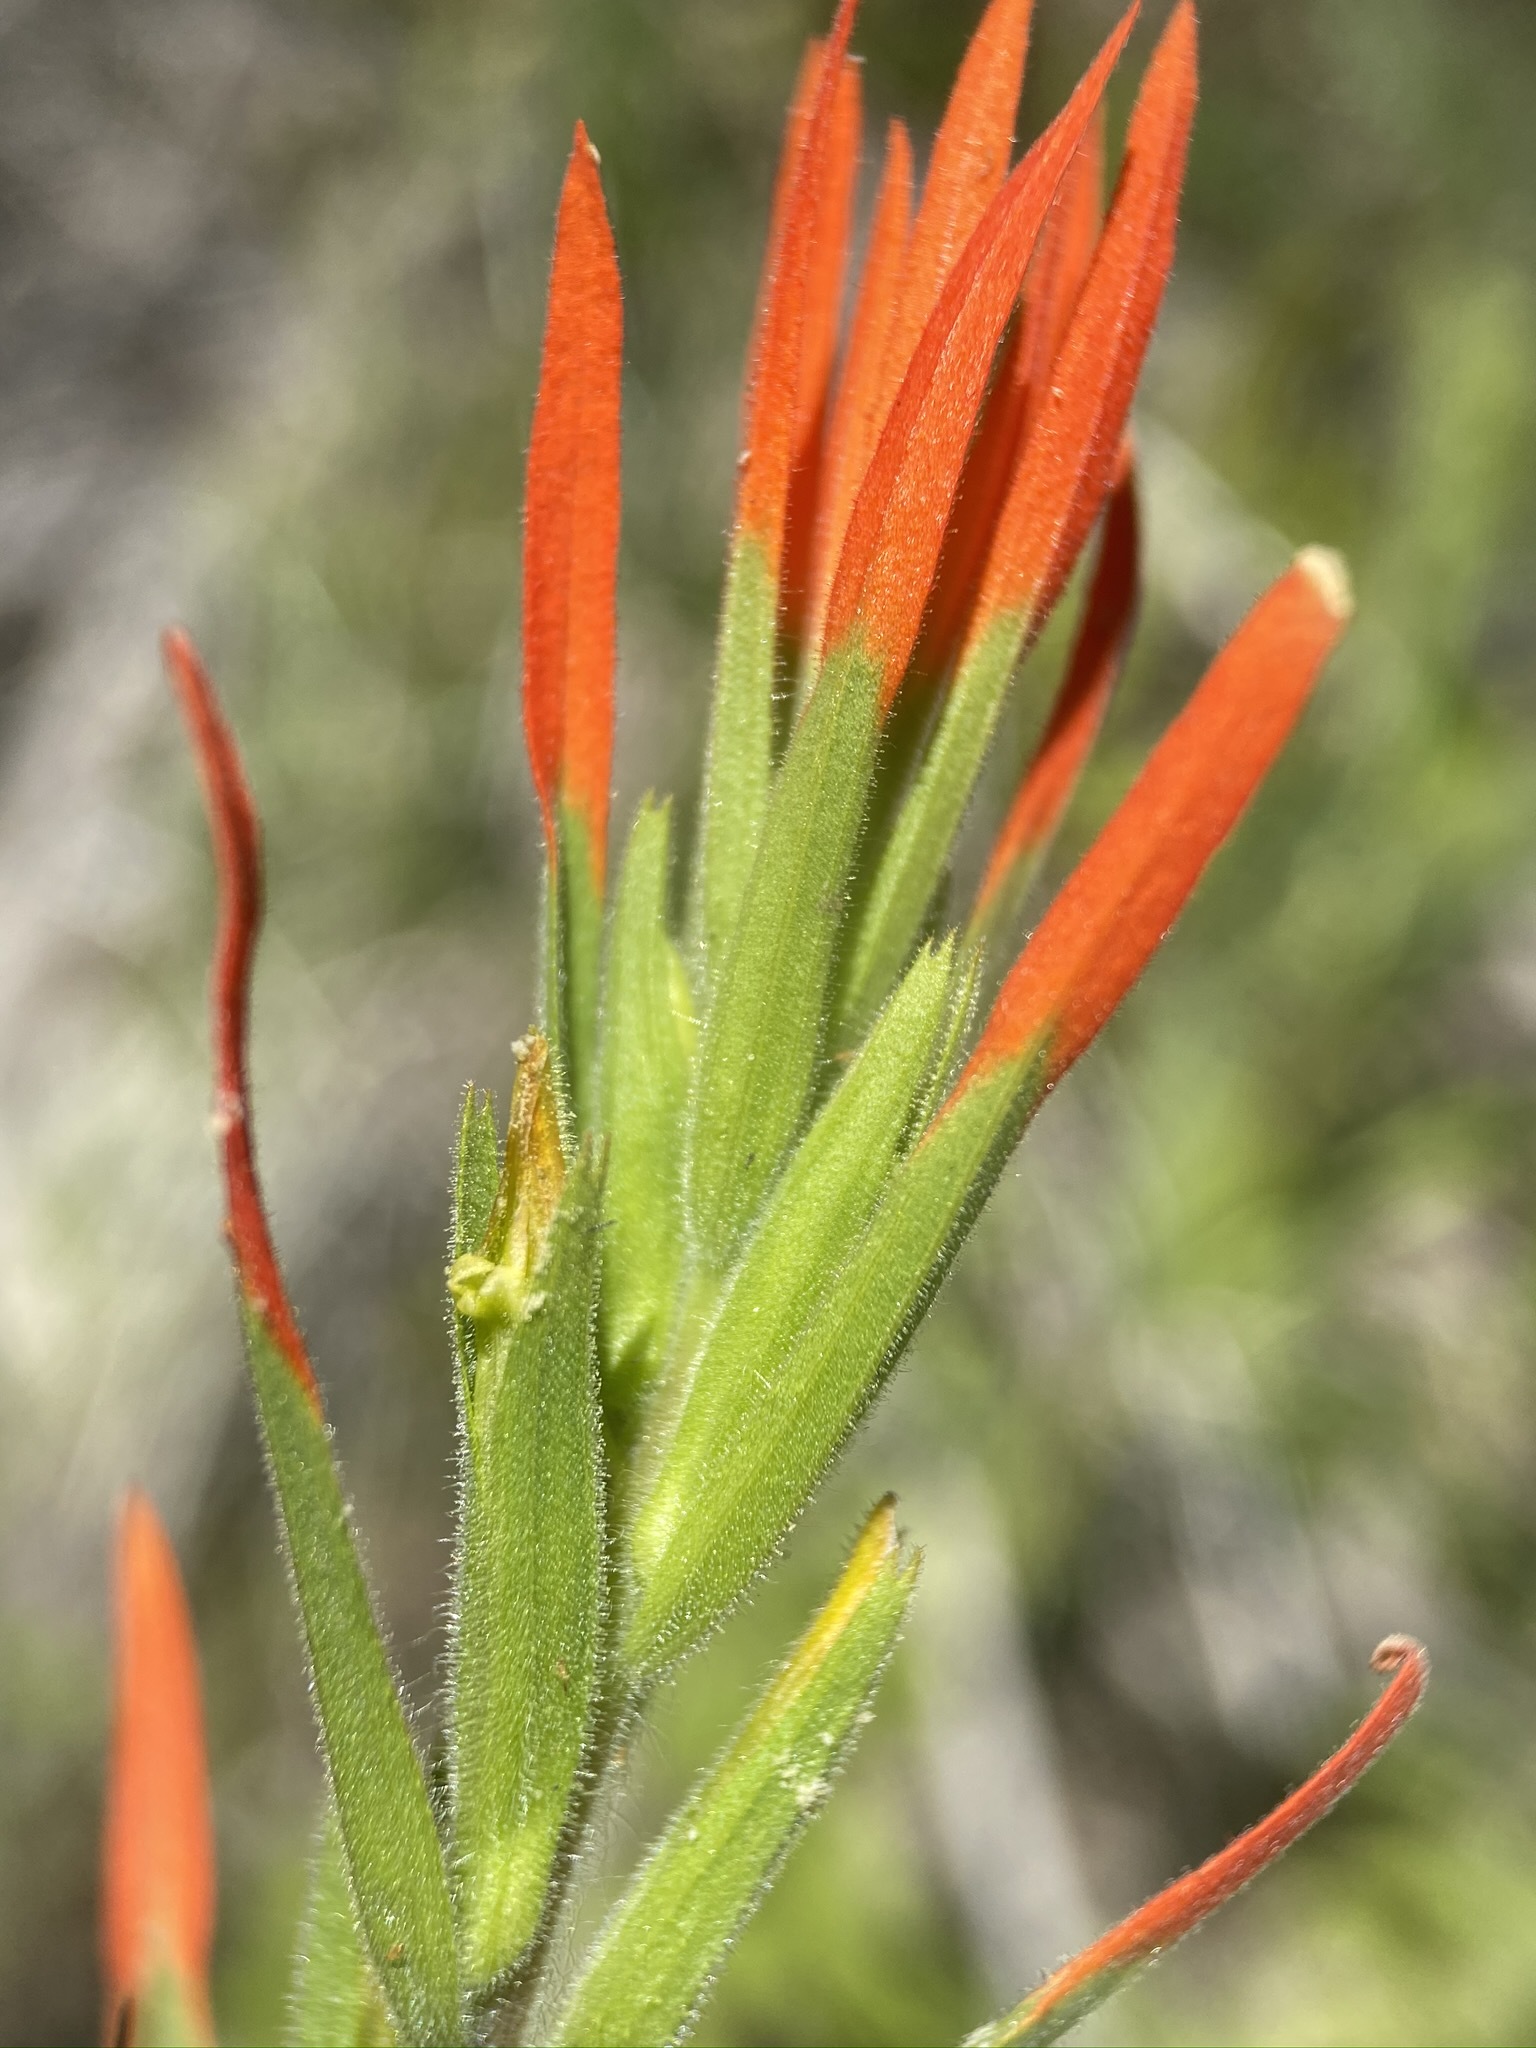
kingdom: Plantae
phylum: Tracheophyta
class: Magnoliopsida
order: Lamiales
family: Orobanchaceae
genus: Castilleja
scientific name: Castilleja minor
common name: Seep paintbrush
